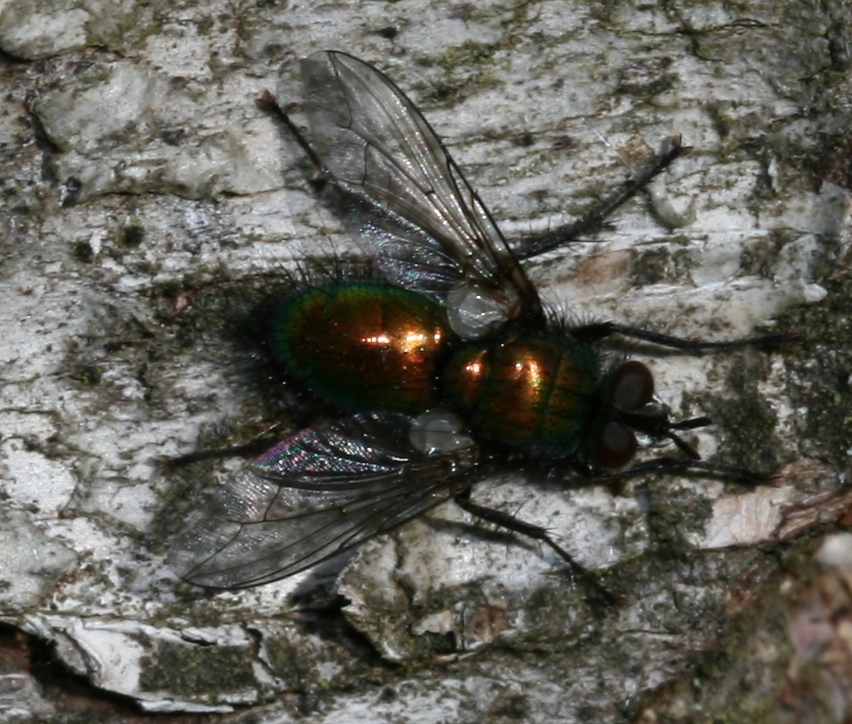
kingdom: Animalia
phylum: Arthropoda
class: Insecta
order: Diptera
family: Tachinidae
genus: Gymnocheta
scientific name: Gymnocheta viridis
